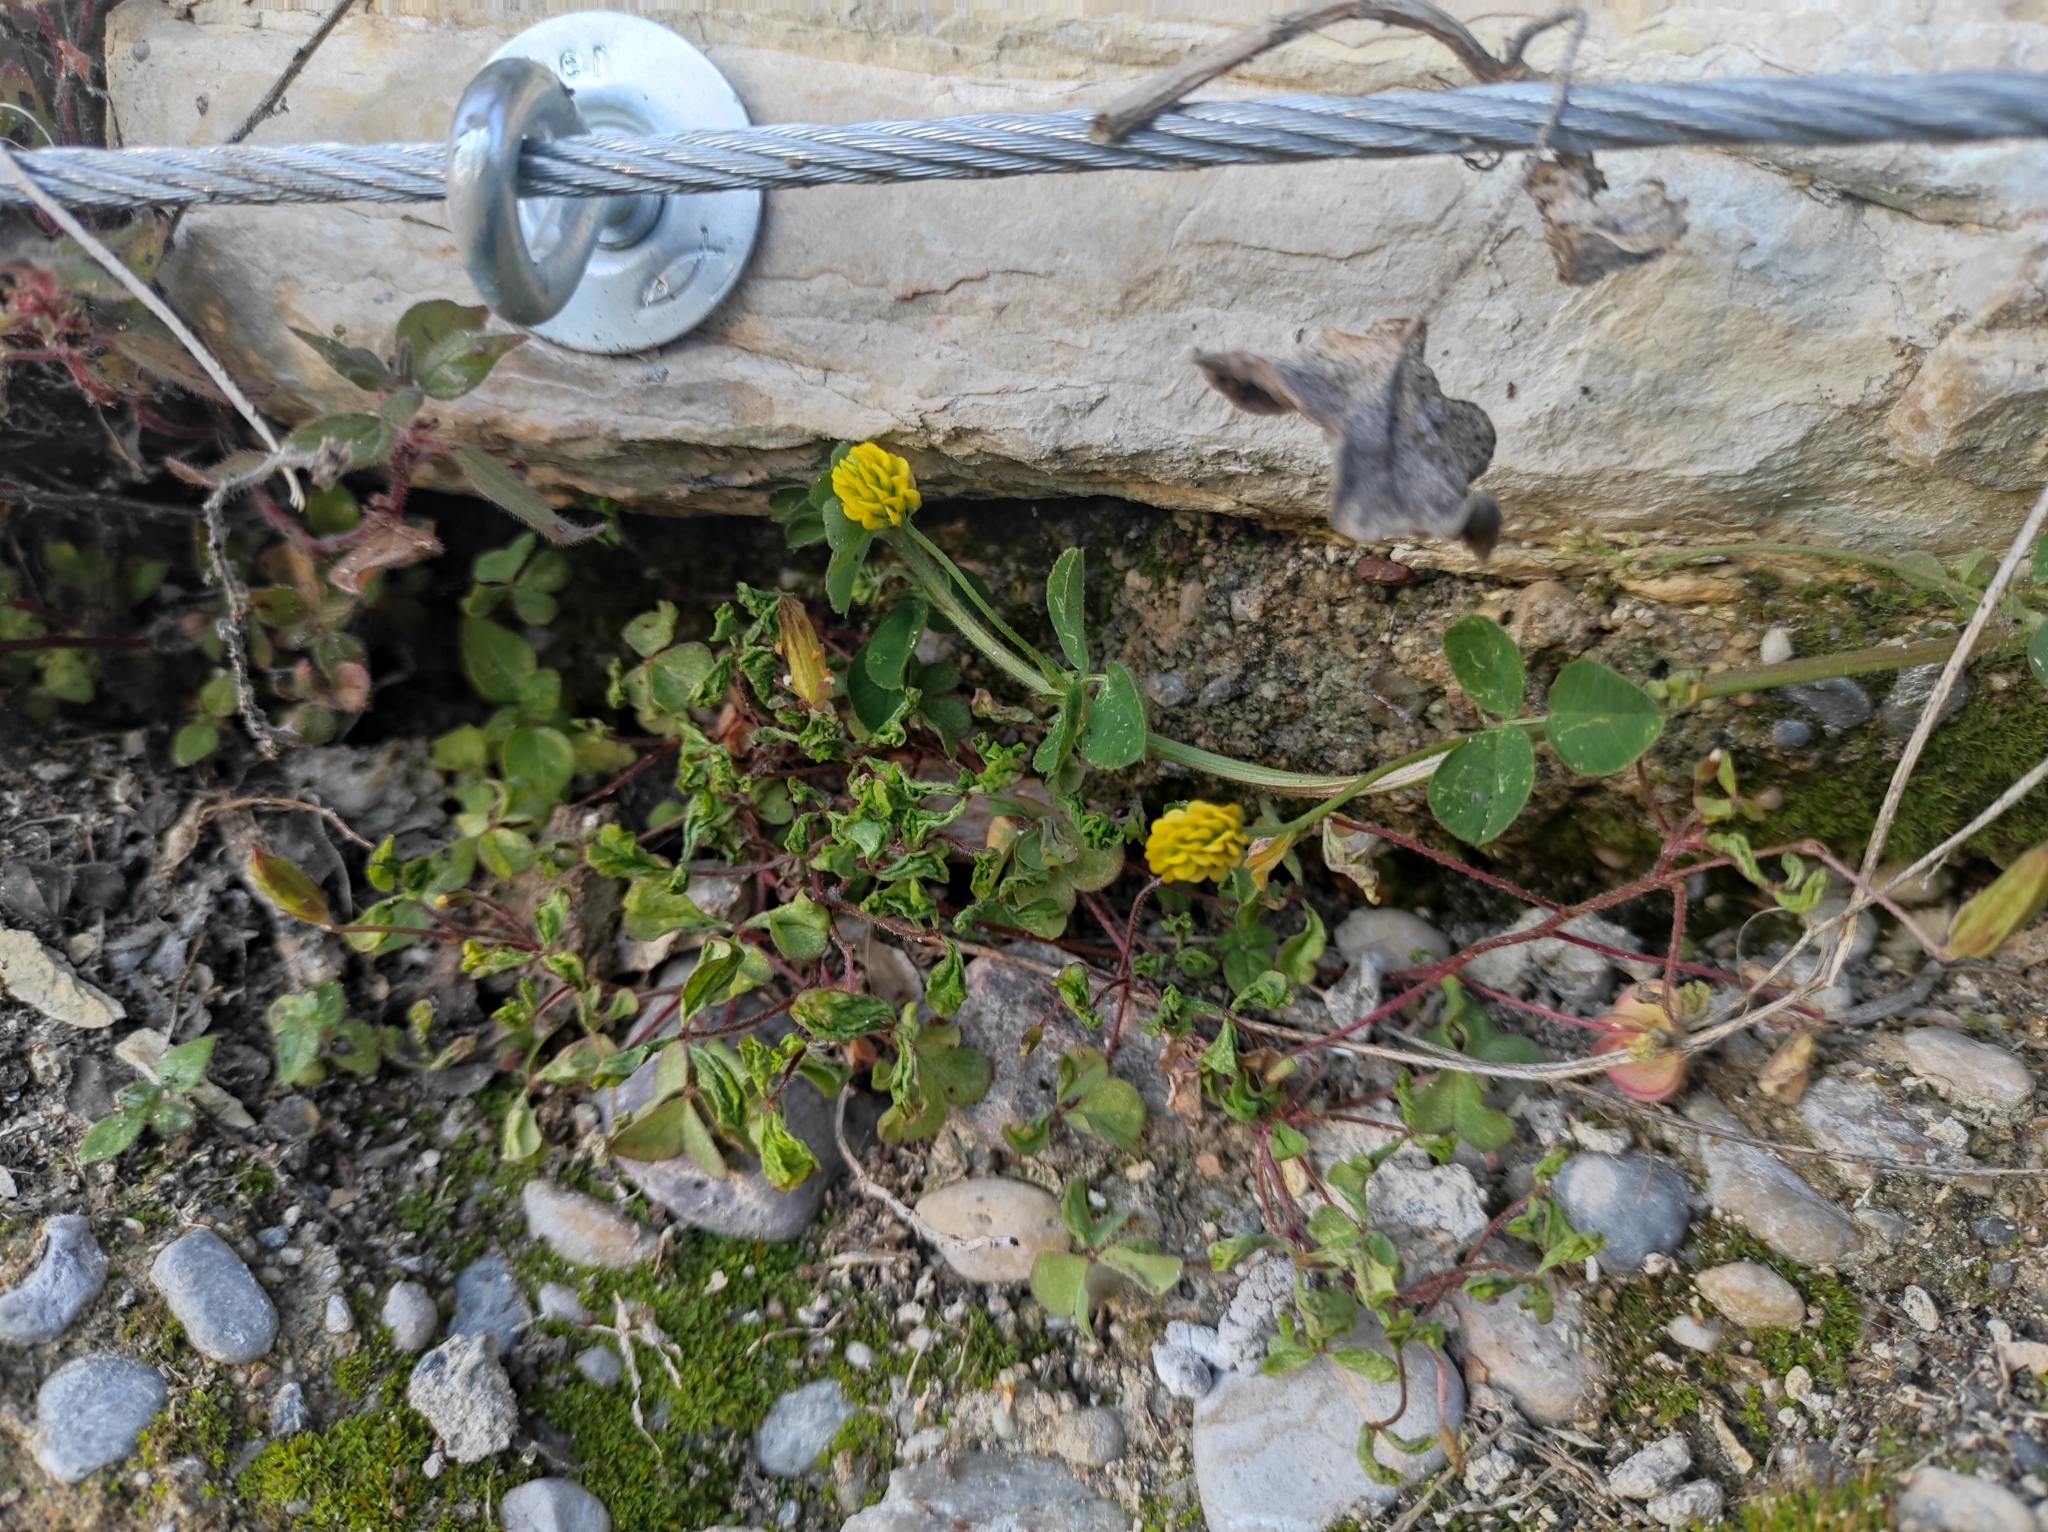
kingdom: Plantae
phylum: Tracheophyta
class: Magnoliopsida
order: Fabales
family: Fabaceae
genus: Medicago
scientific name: Medicago lupulina
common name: Black medick
